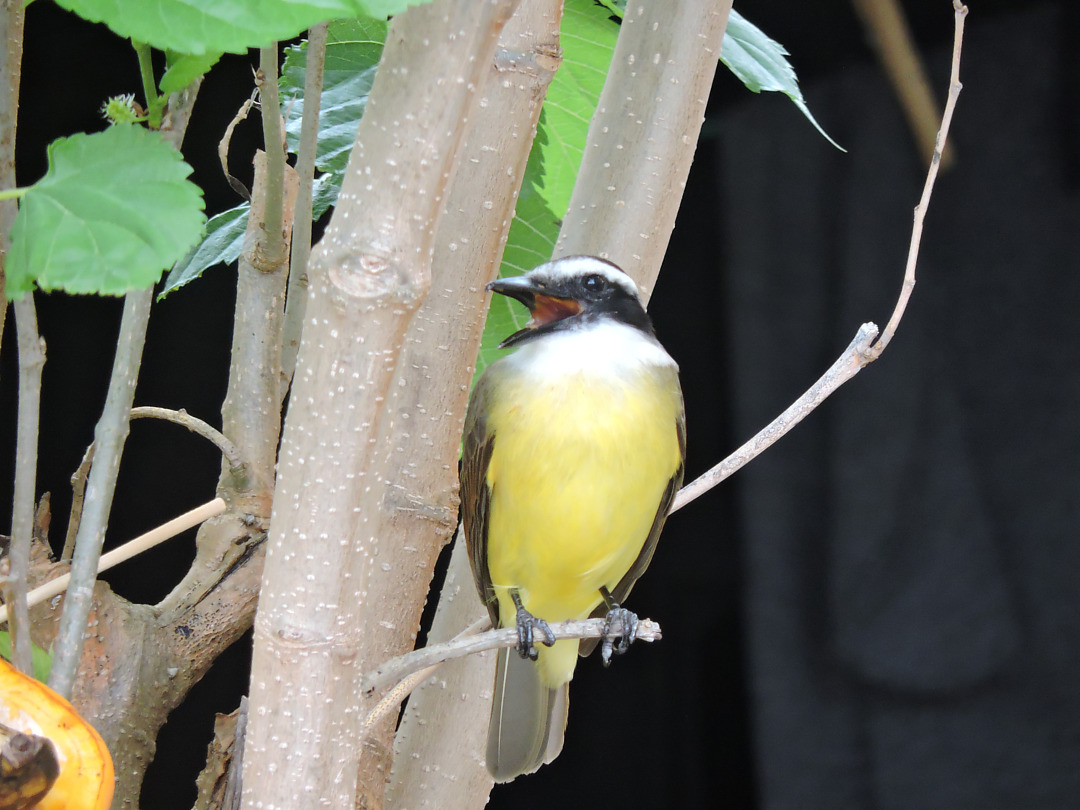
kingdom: Animalia
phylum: Chordata
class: Aves
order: Passeriformes
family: Tyrannidae
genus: Pitangus
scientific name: Pitangus sulphuratus
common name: Great kiskadee
